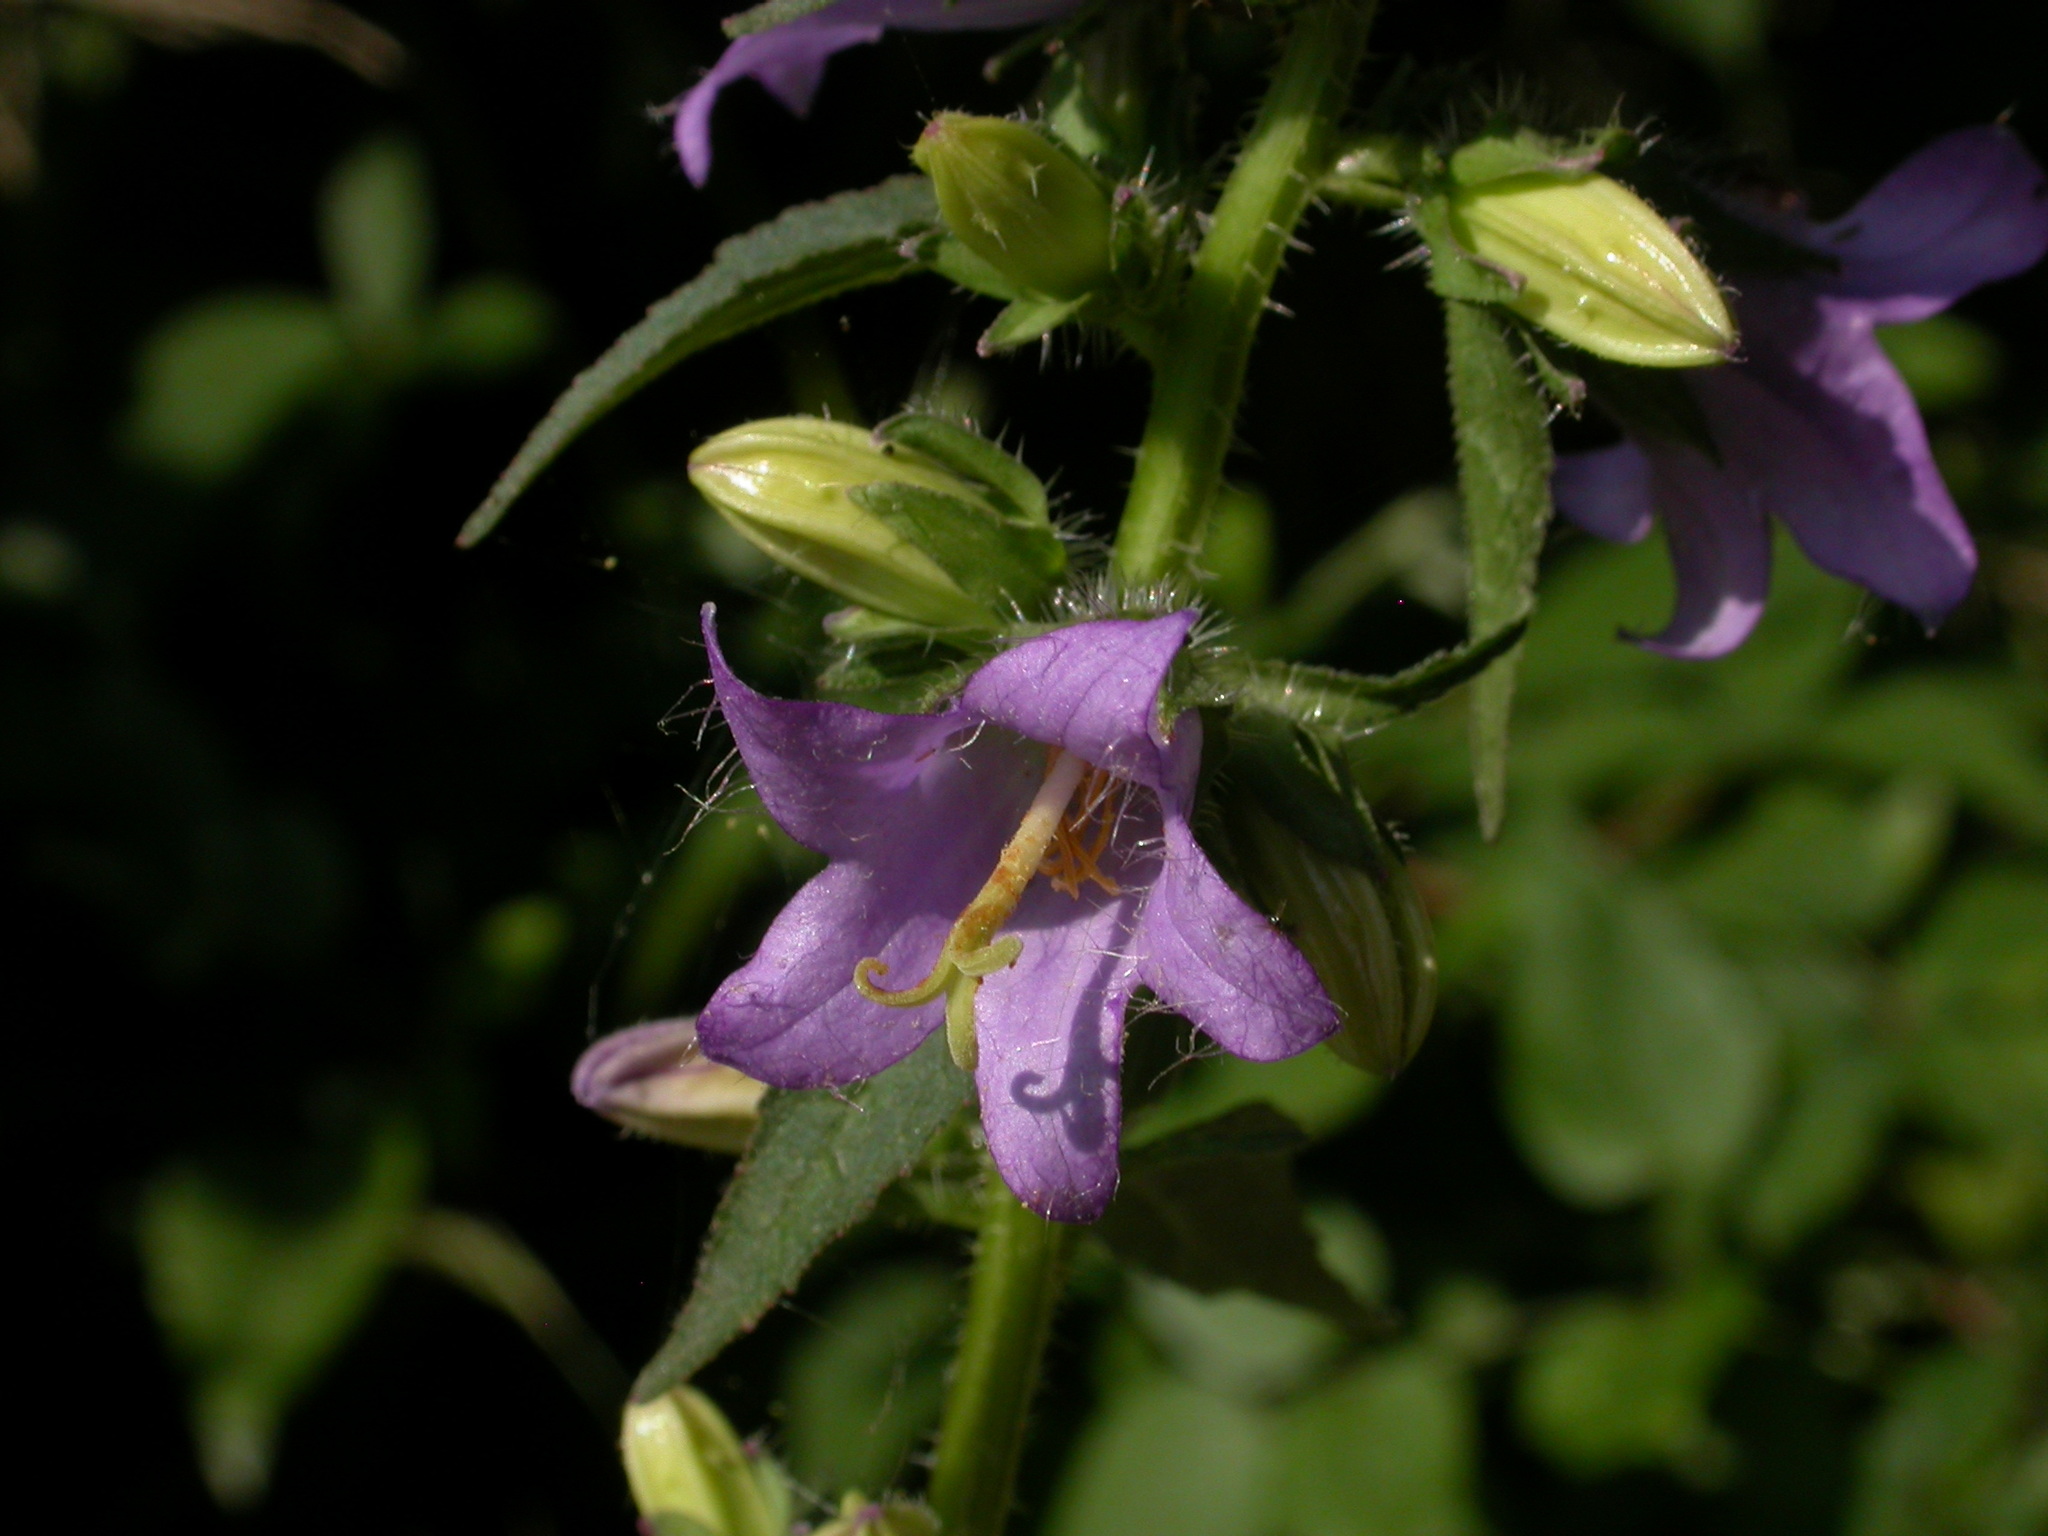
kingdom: Plantae
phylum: Tracheophyta
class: Magnoliopsida
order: Asterales
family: Campanulaceae
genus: Campanula
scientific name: Campanula trachelium
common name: Nettle-leaved bellflower
